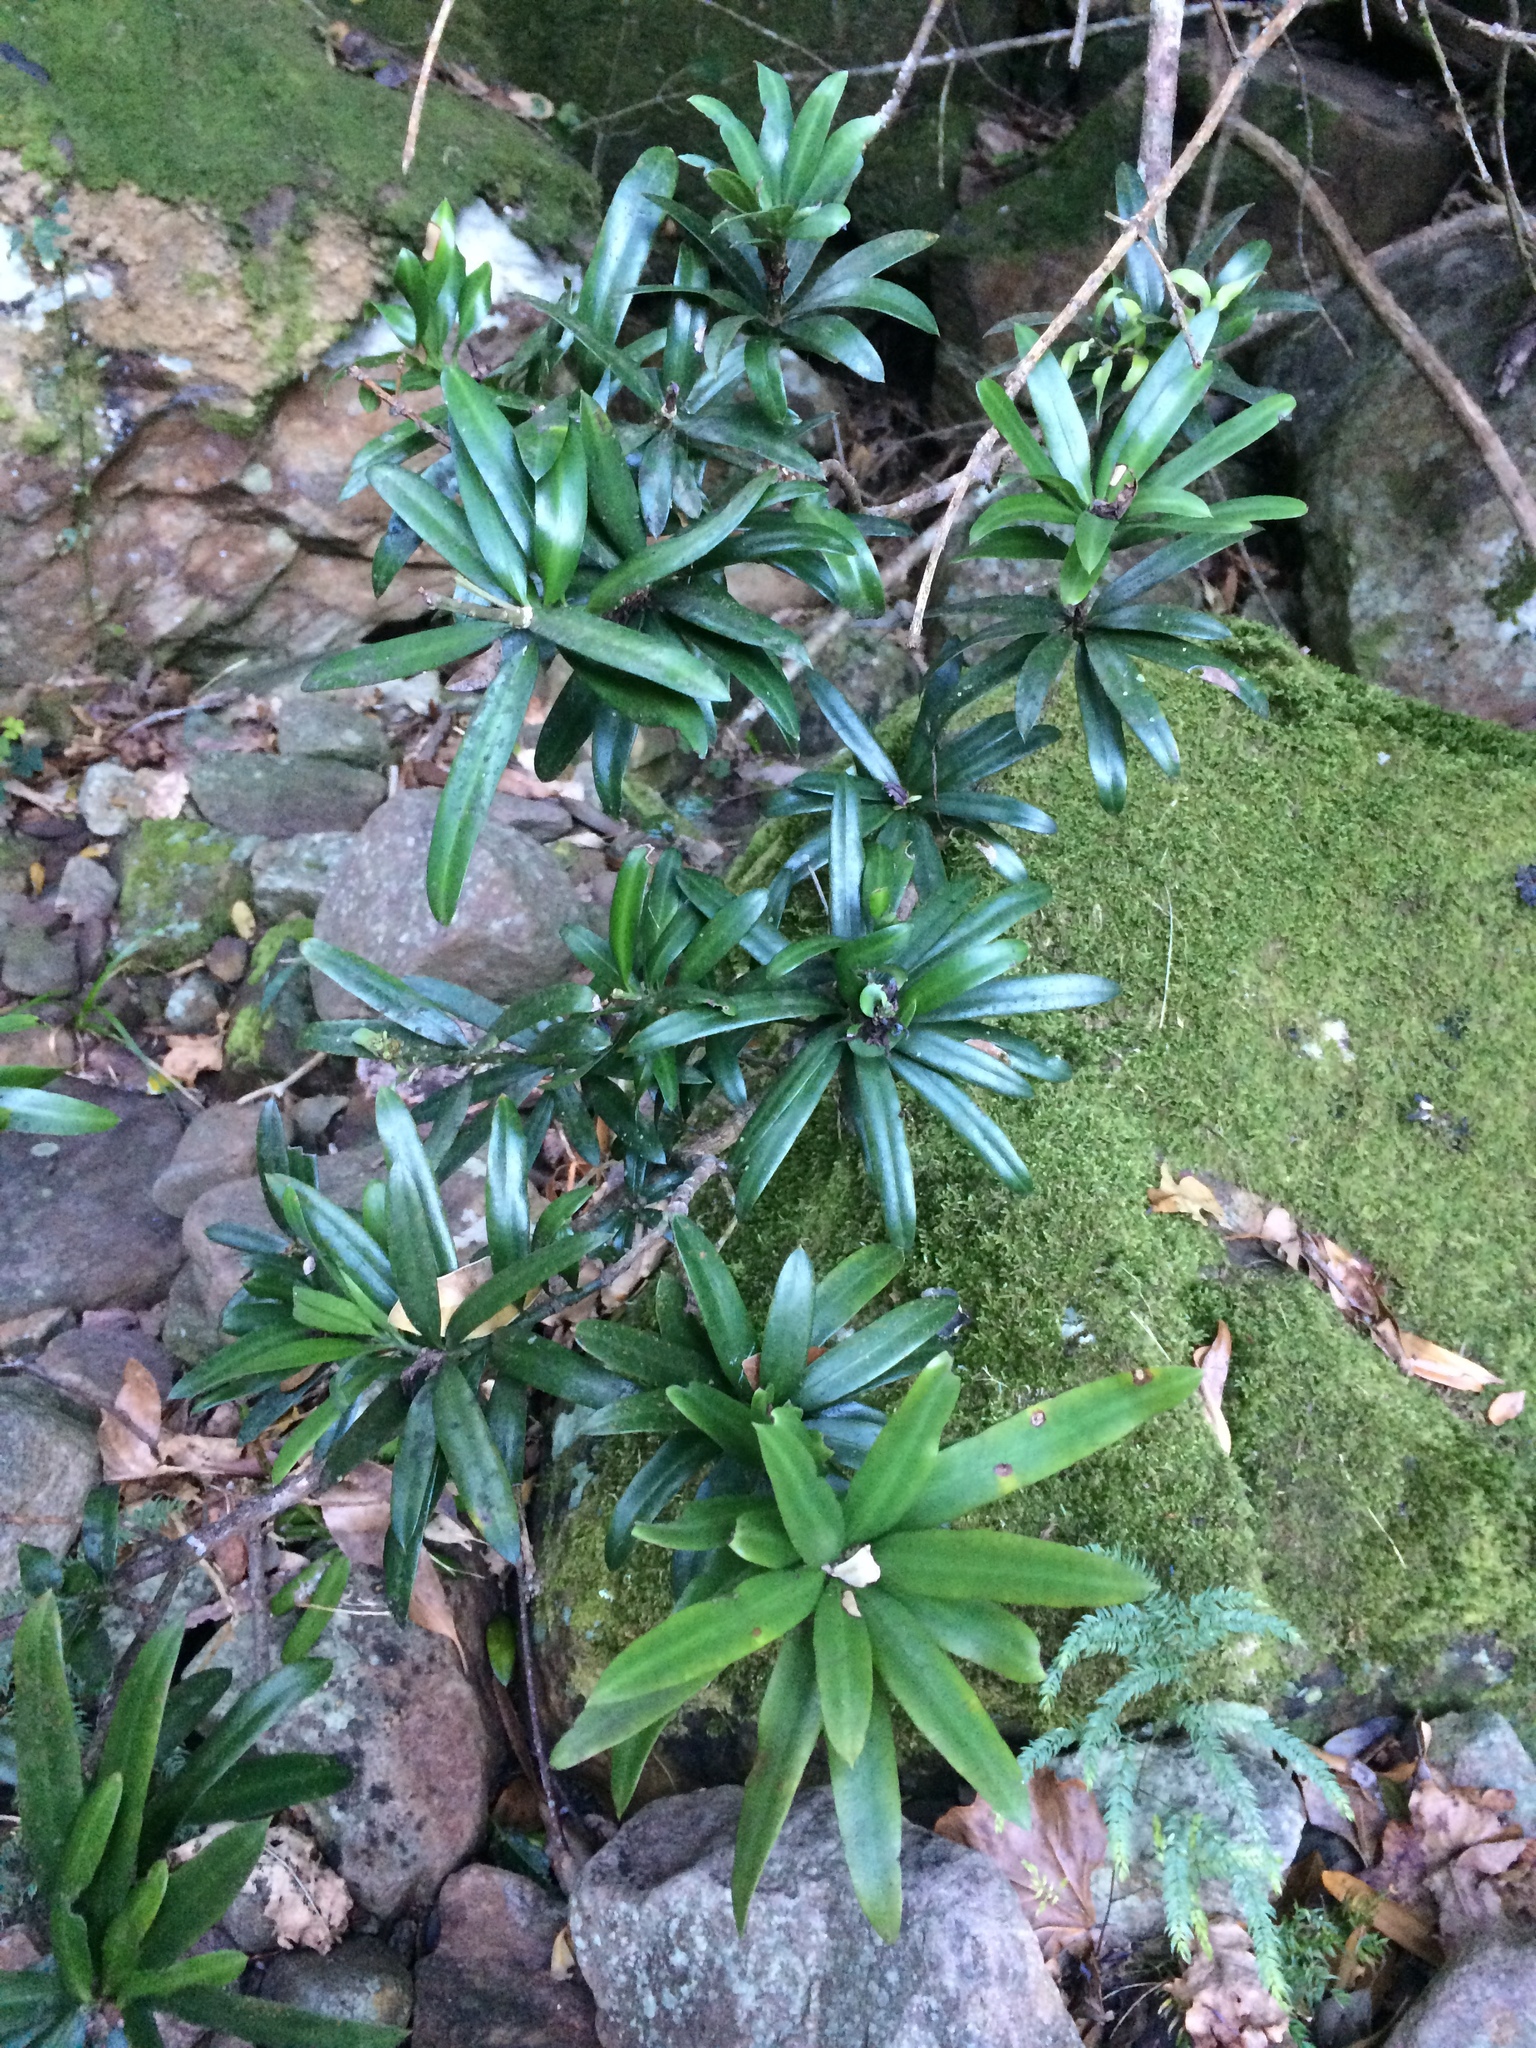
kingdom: Plantae
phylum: Tracheophyta
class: Pinopsida
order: Pinales
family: Podocarpaceae
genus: Podocarpus
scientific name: Podocarpus latifolius
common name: True yellowwood
